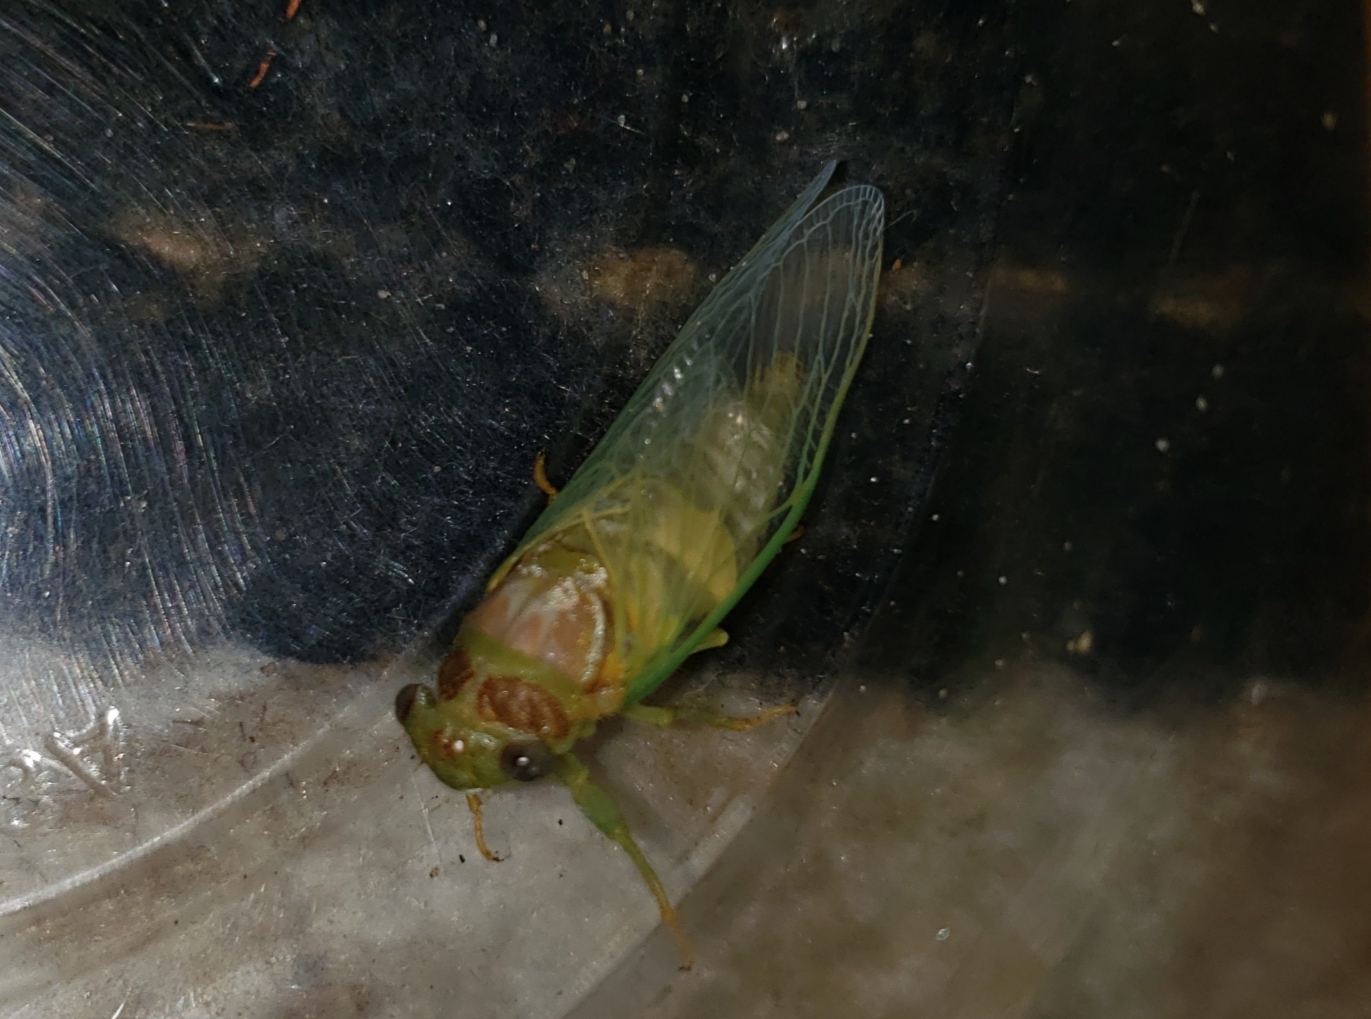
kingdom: Animalia
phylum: Arthropoda
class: Insecta
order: Hemiptera
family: Cicadidae
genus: Diceroprocta
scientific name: Diceroprocta olympusa
